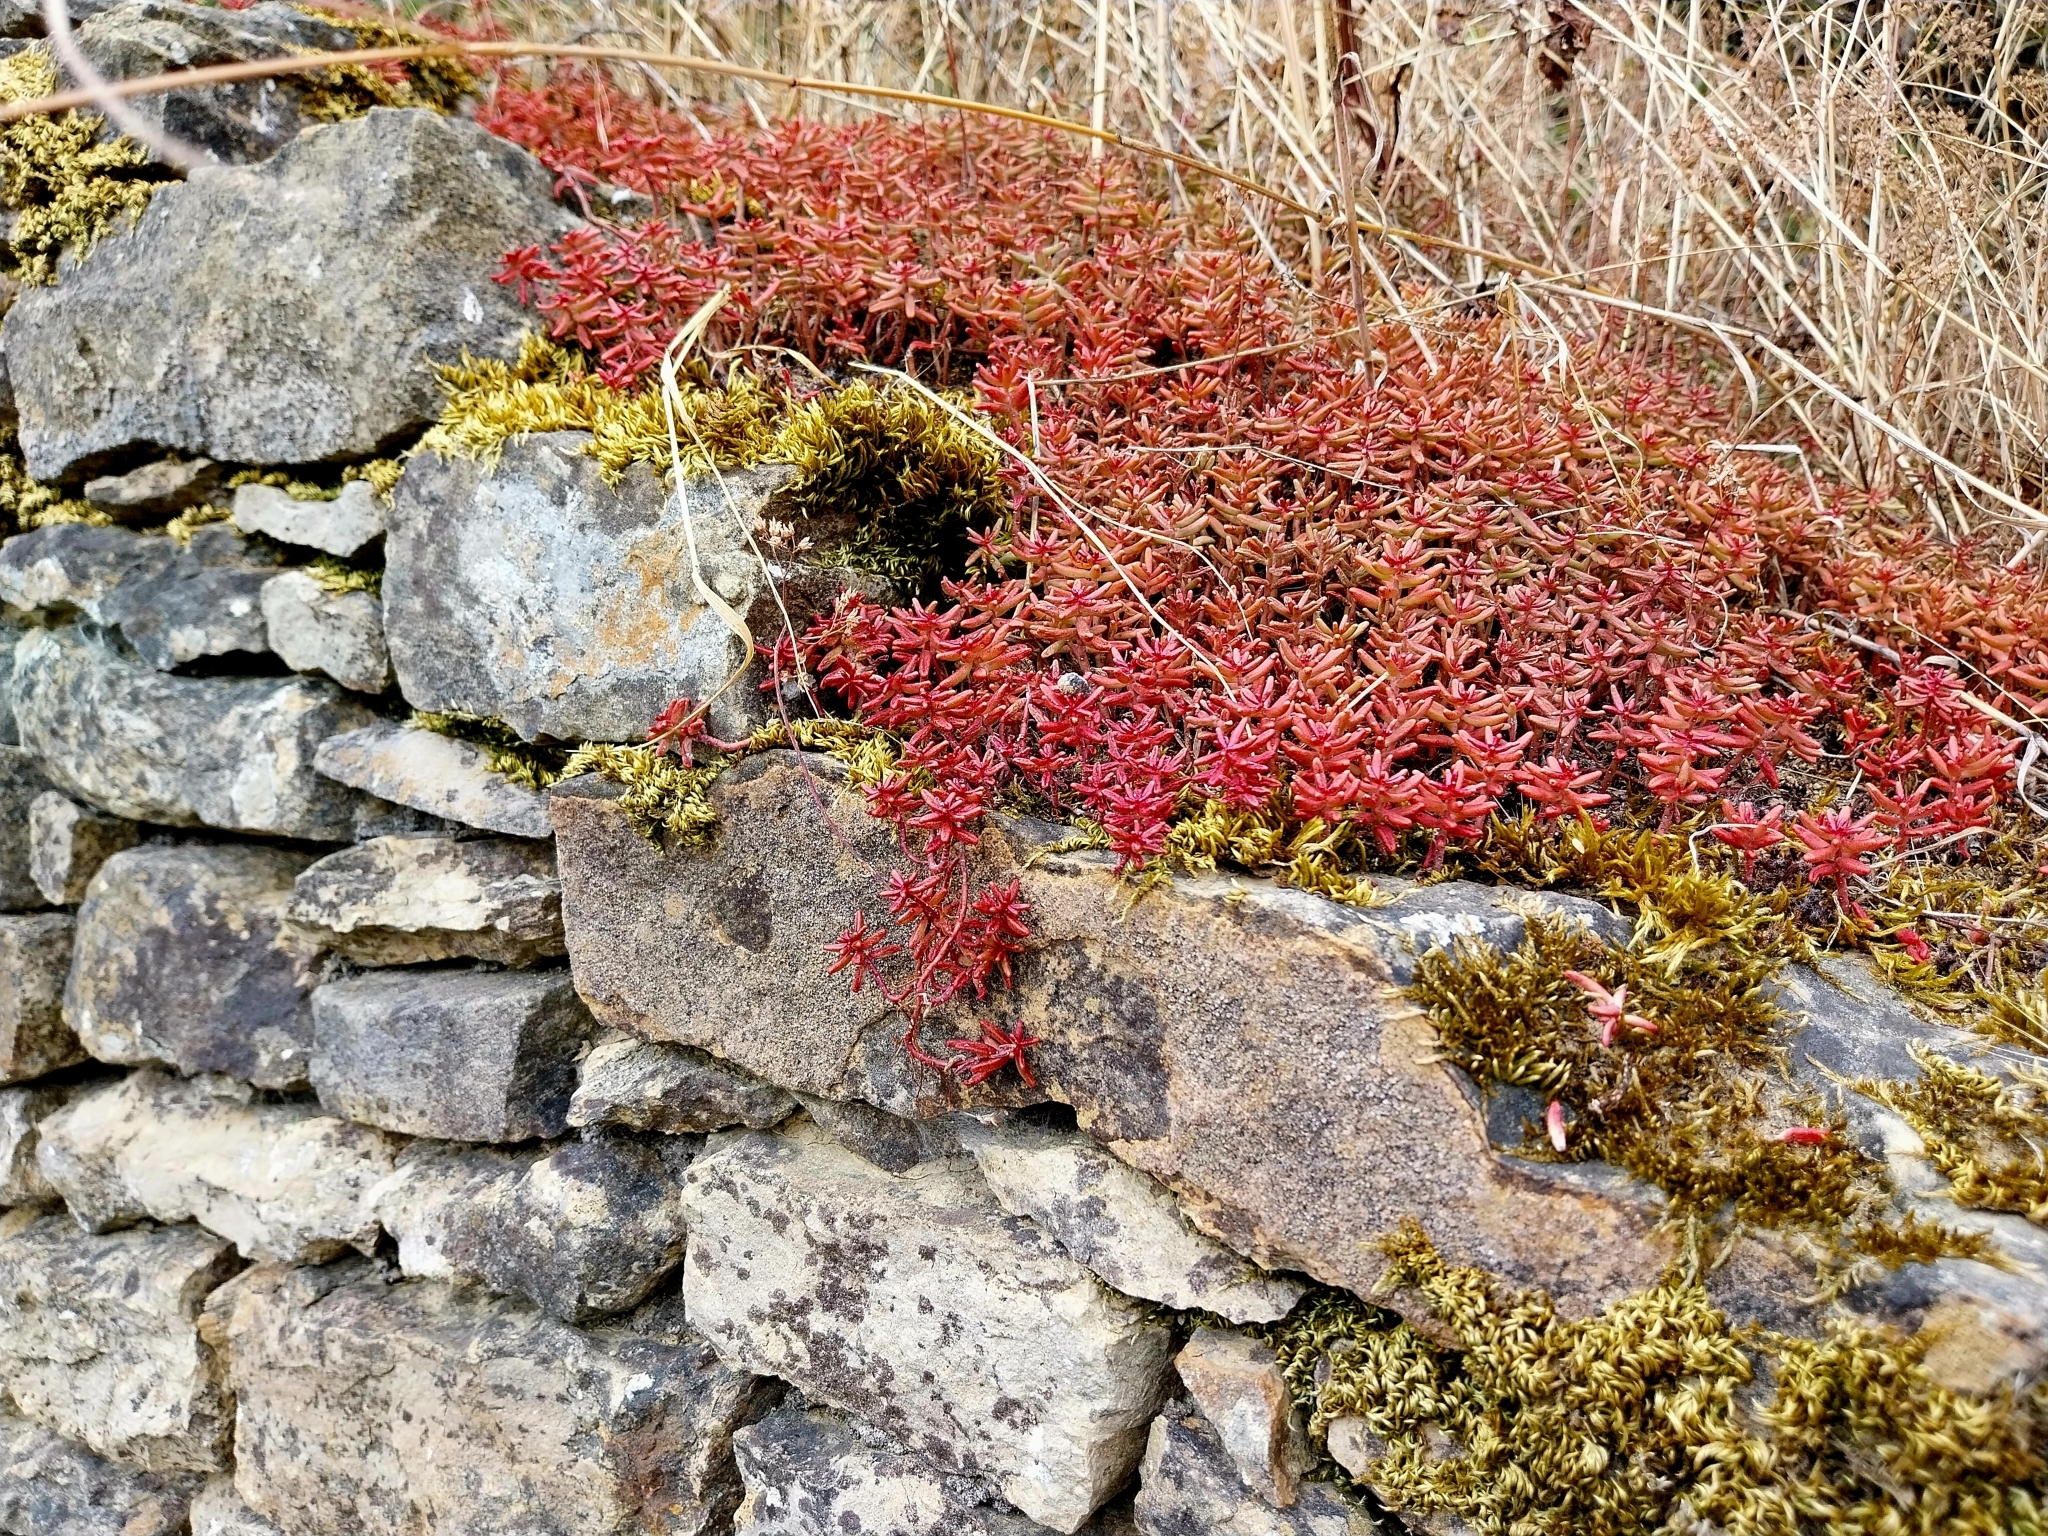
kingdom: Plantae
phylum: Tracheophyta
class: Magnoliopsida
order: Saxifragales
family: Crassulaceae
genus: Sedum
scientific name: Sedum album
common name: White stonecrop
